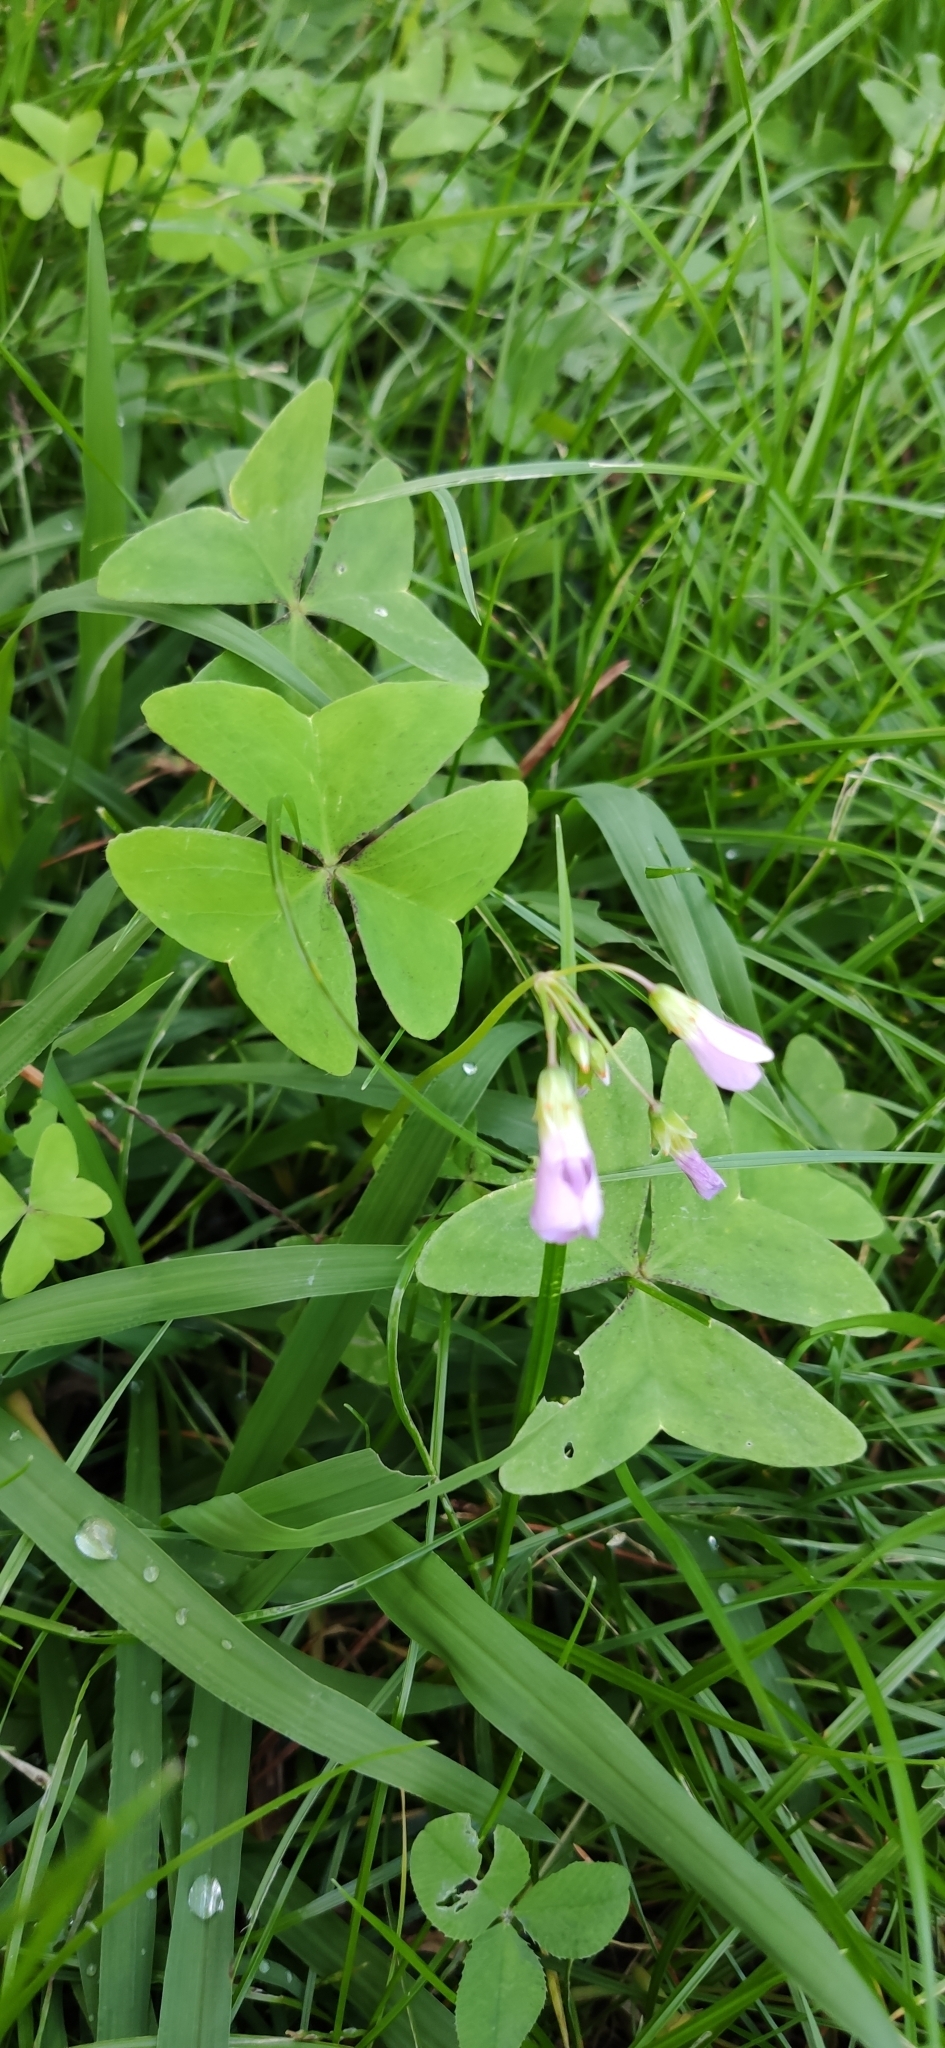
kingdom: Plantae
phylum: Tracheophyta
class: Magnoliopsida
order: Oxalidales
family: Oxalidaceae
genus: Oxalis
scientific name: Oxalis latifolia
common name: Garden pink-sorrel
